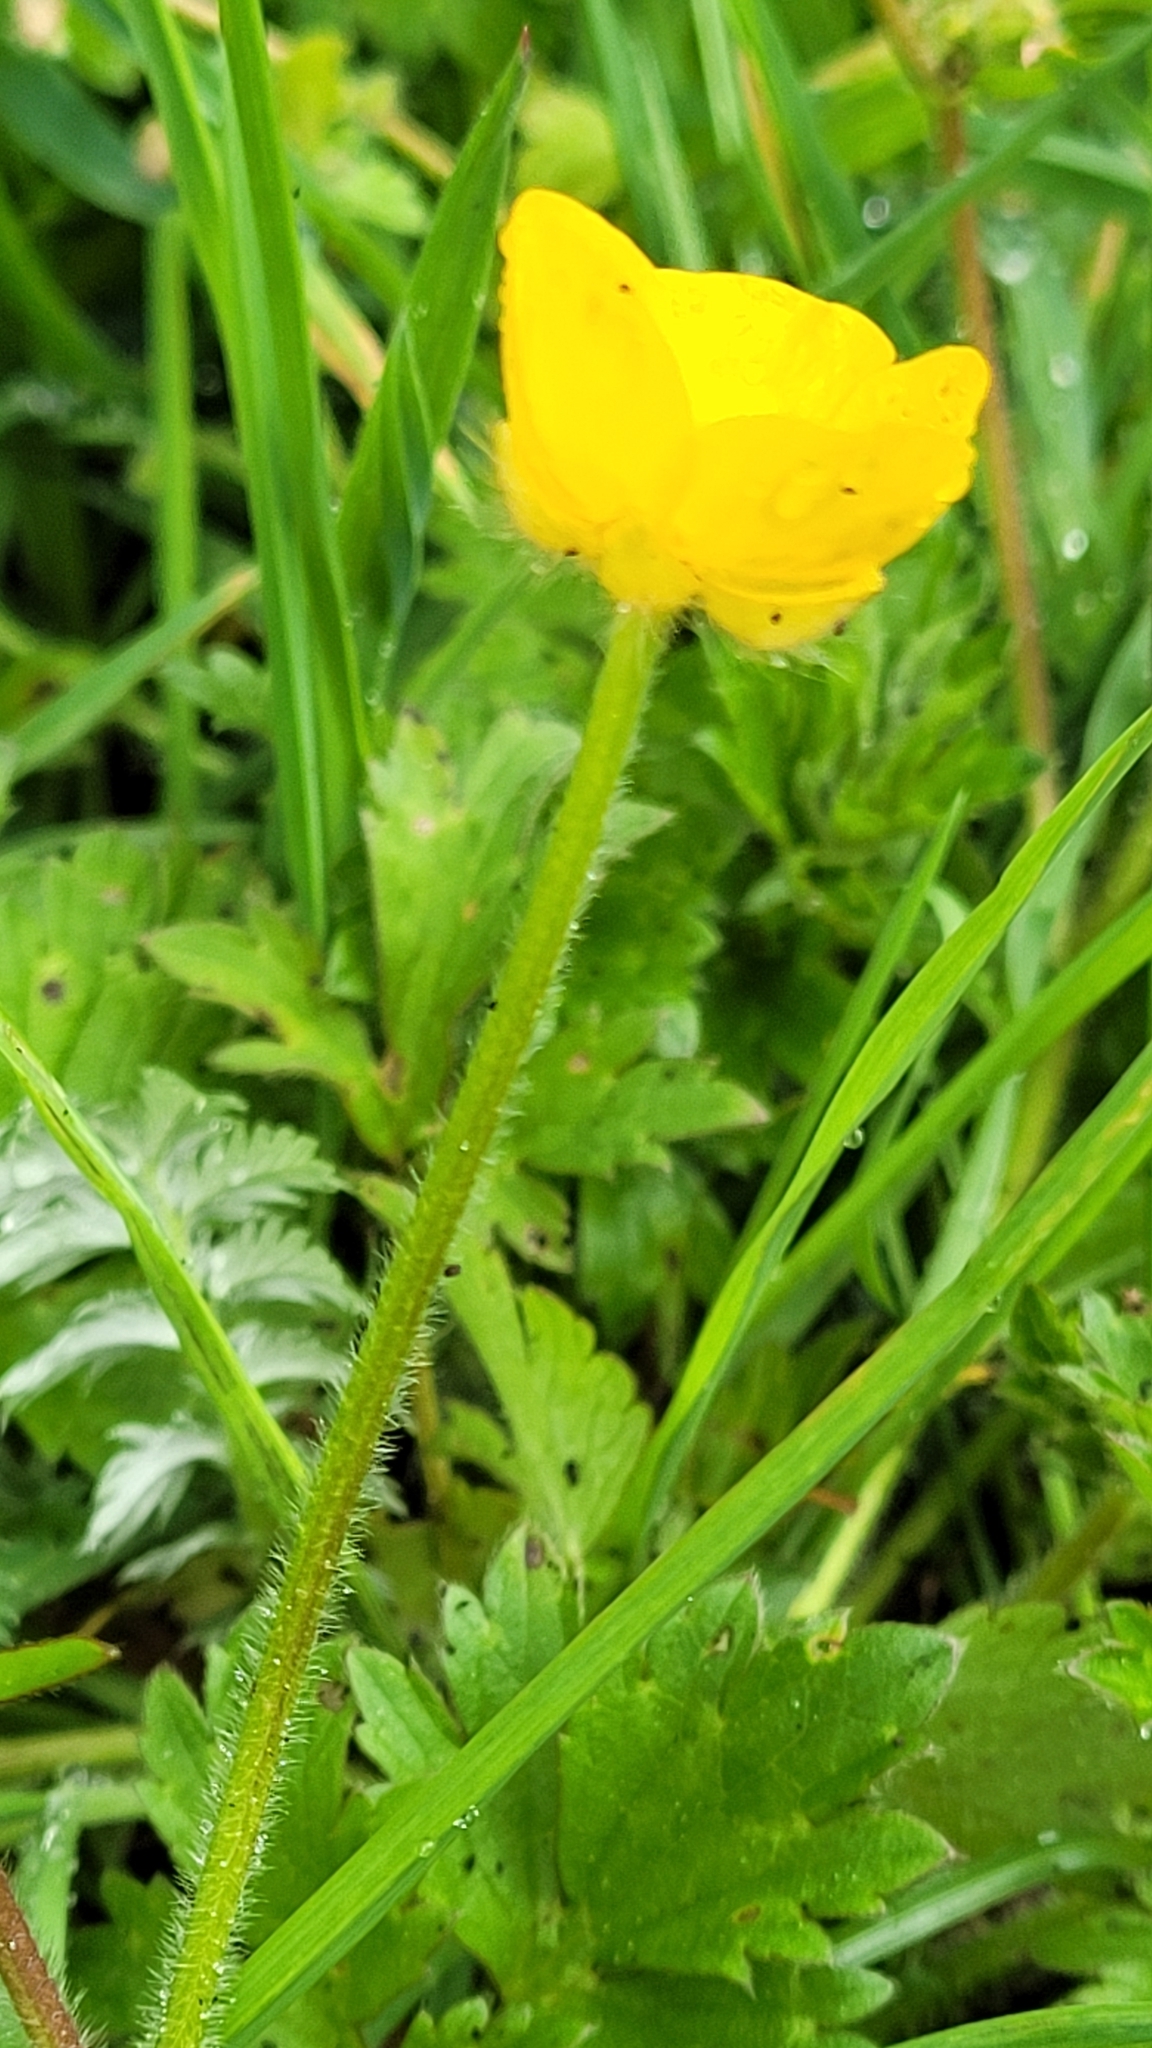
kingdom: Plantae
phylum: Tracheophyta
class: Magnoliopsida
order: Ranunculales
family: Ranunculaceae
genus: Ranunculus
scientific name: Ranunculus repens
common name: Creeping buttercup
